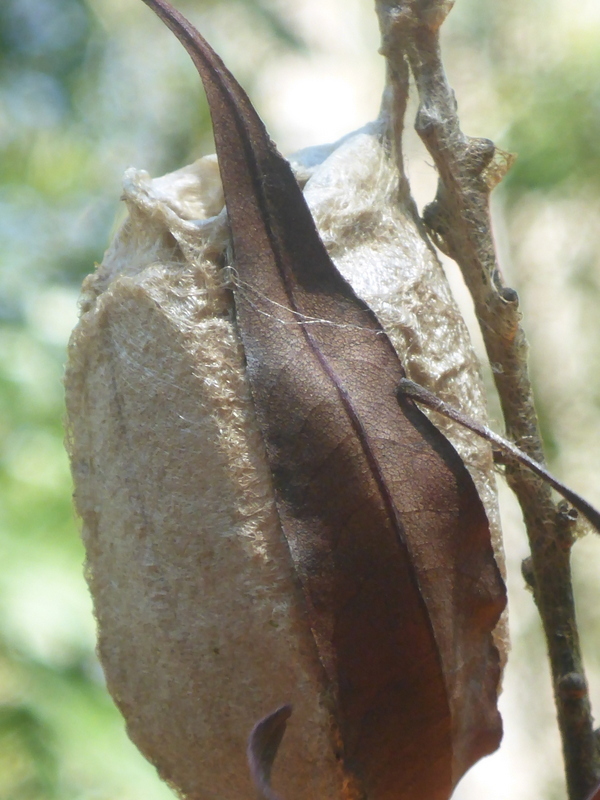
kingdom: Animalia
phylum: Arthropoda
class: Insecta
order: Lepidoptera
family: Saturniidae
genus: Antheraea
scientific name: Antheraea polyphemus
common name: Polyphemus moth
